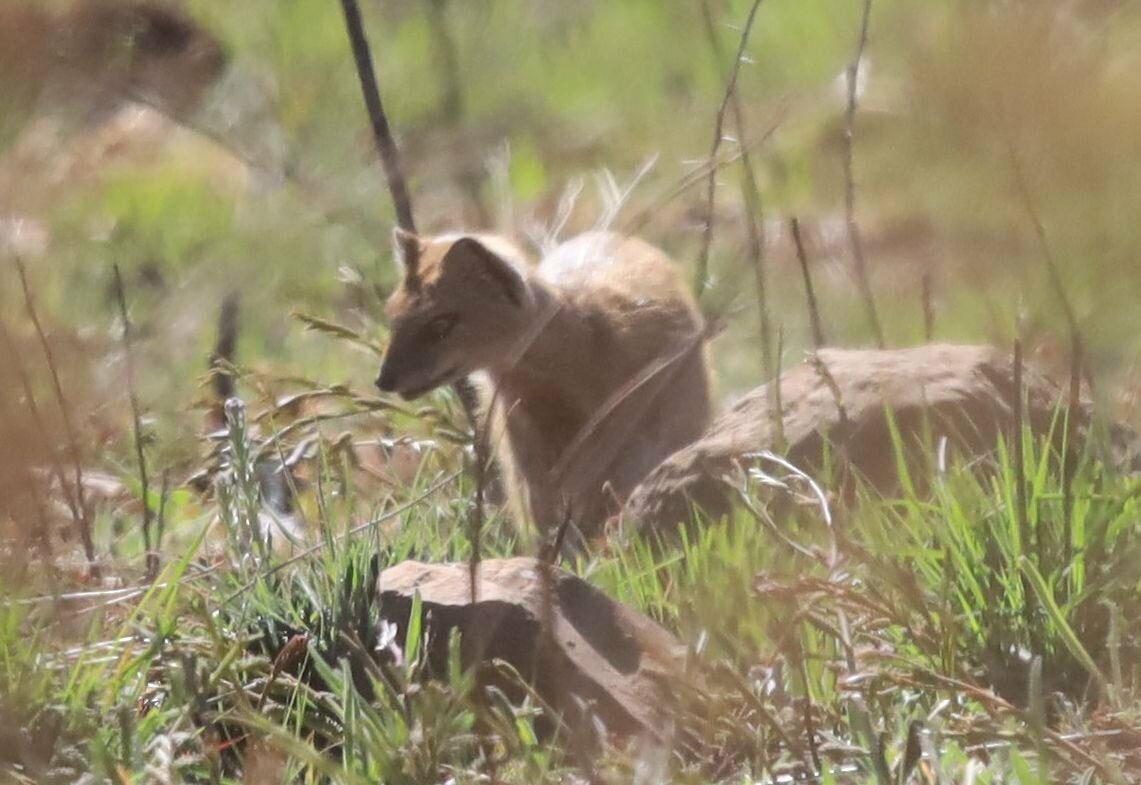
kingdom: Animalia
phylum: Chordata
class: Mammalia
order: Carnivora
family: Herpestidae
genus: Cynictis
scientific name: Cynictis penicillata
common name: Yellow mongoose
